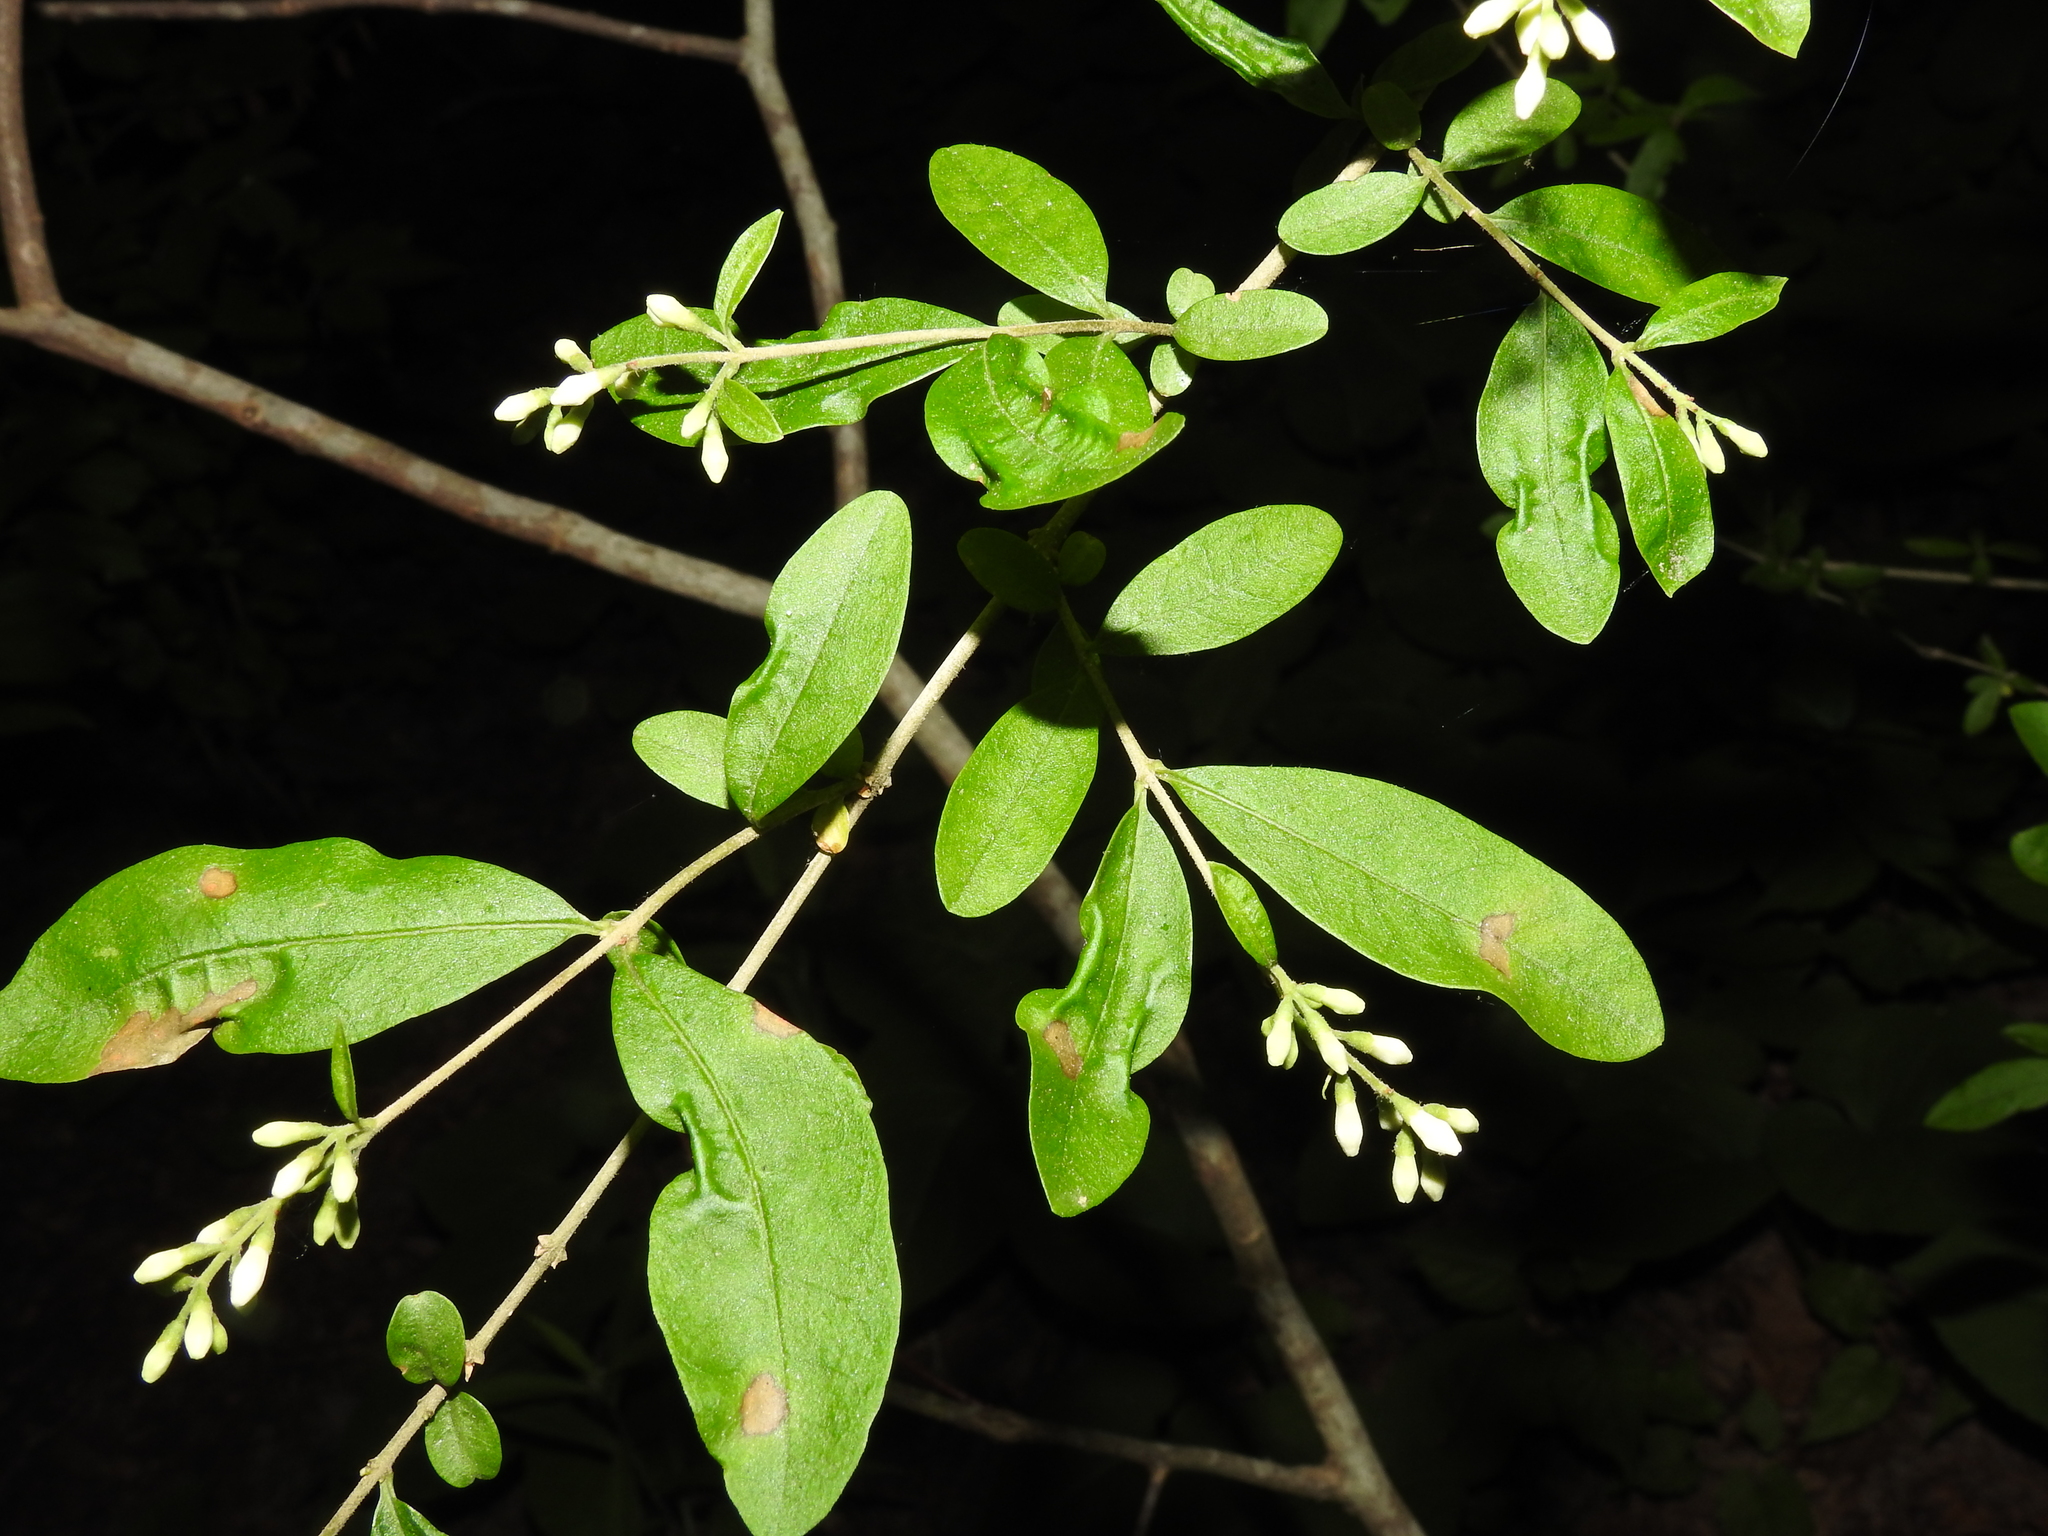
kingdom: Plantae
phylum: Tracheophyta
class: Magnoliopsida
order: Lamiales
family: Oleaceae
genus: Ligustrum
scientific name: Ligustrum obtusifolium
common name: Border privet
